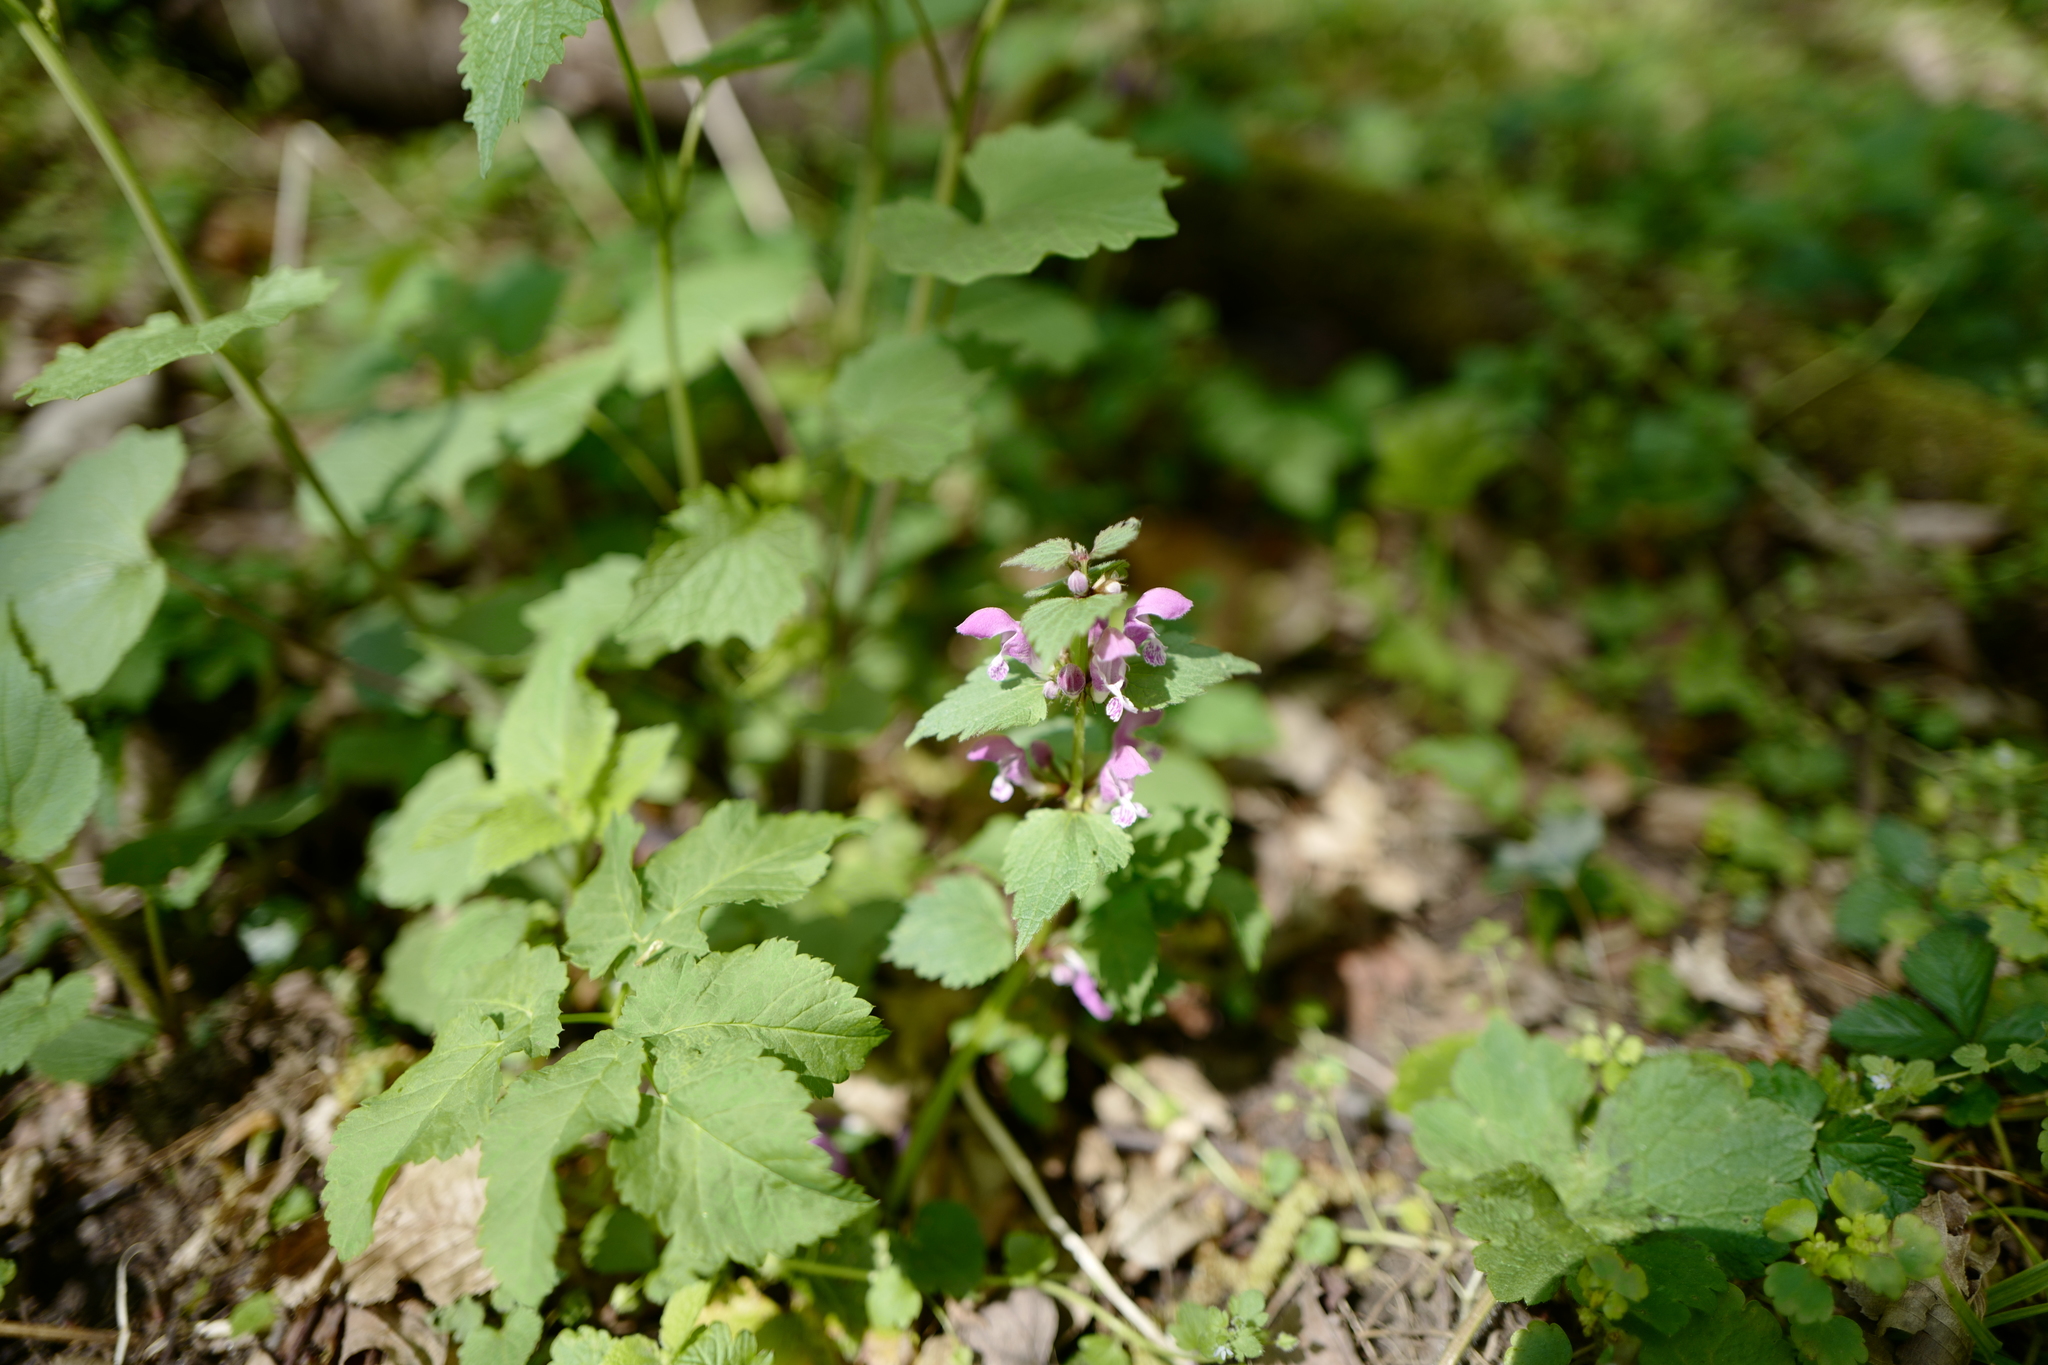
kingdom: Plantae
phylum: Tracheophyta
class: Magnoliopsida
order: Lamiales
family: Lamiaceae
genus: Lamium
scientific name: Lamium maculatum
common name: Spotted dead-nettle
